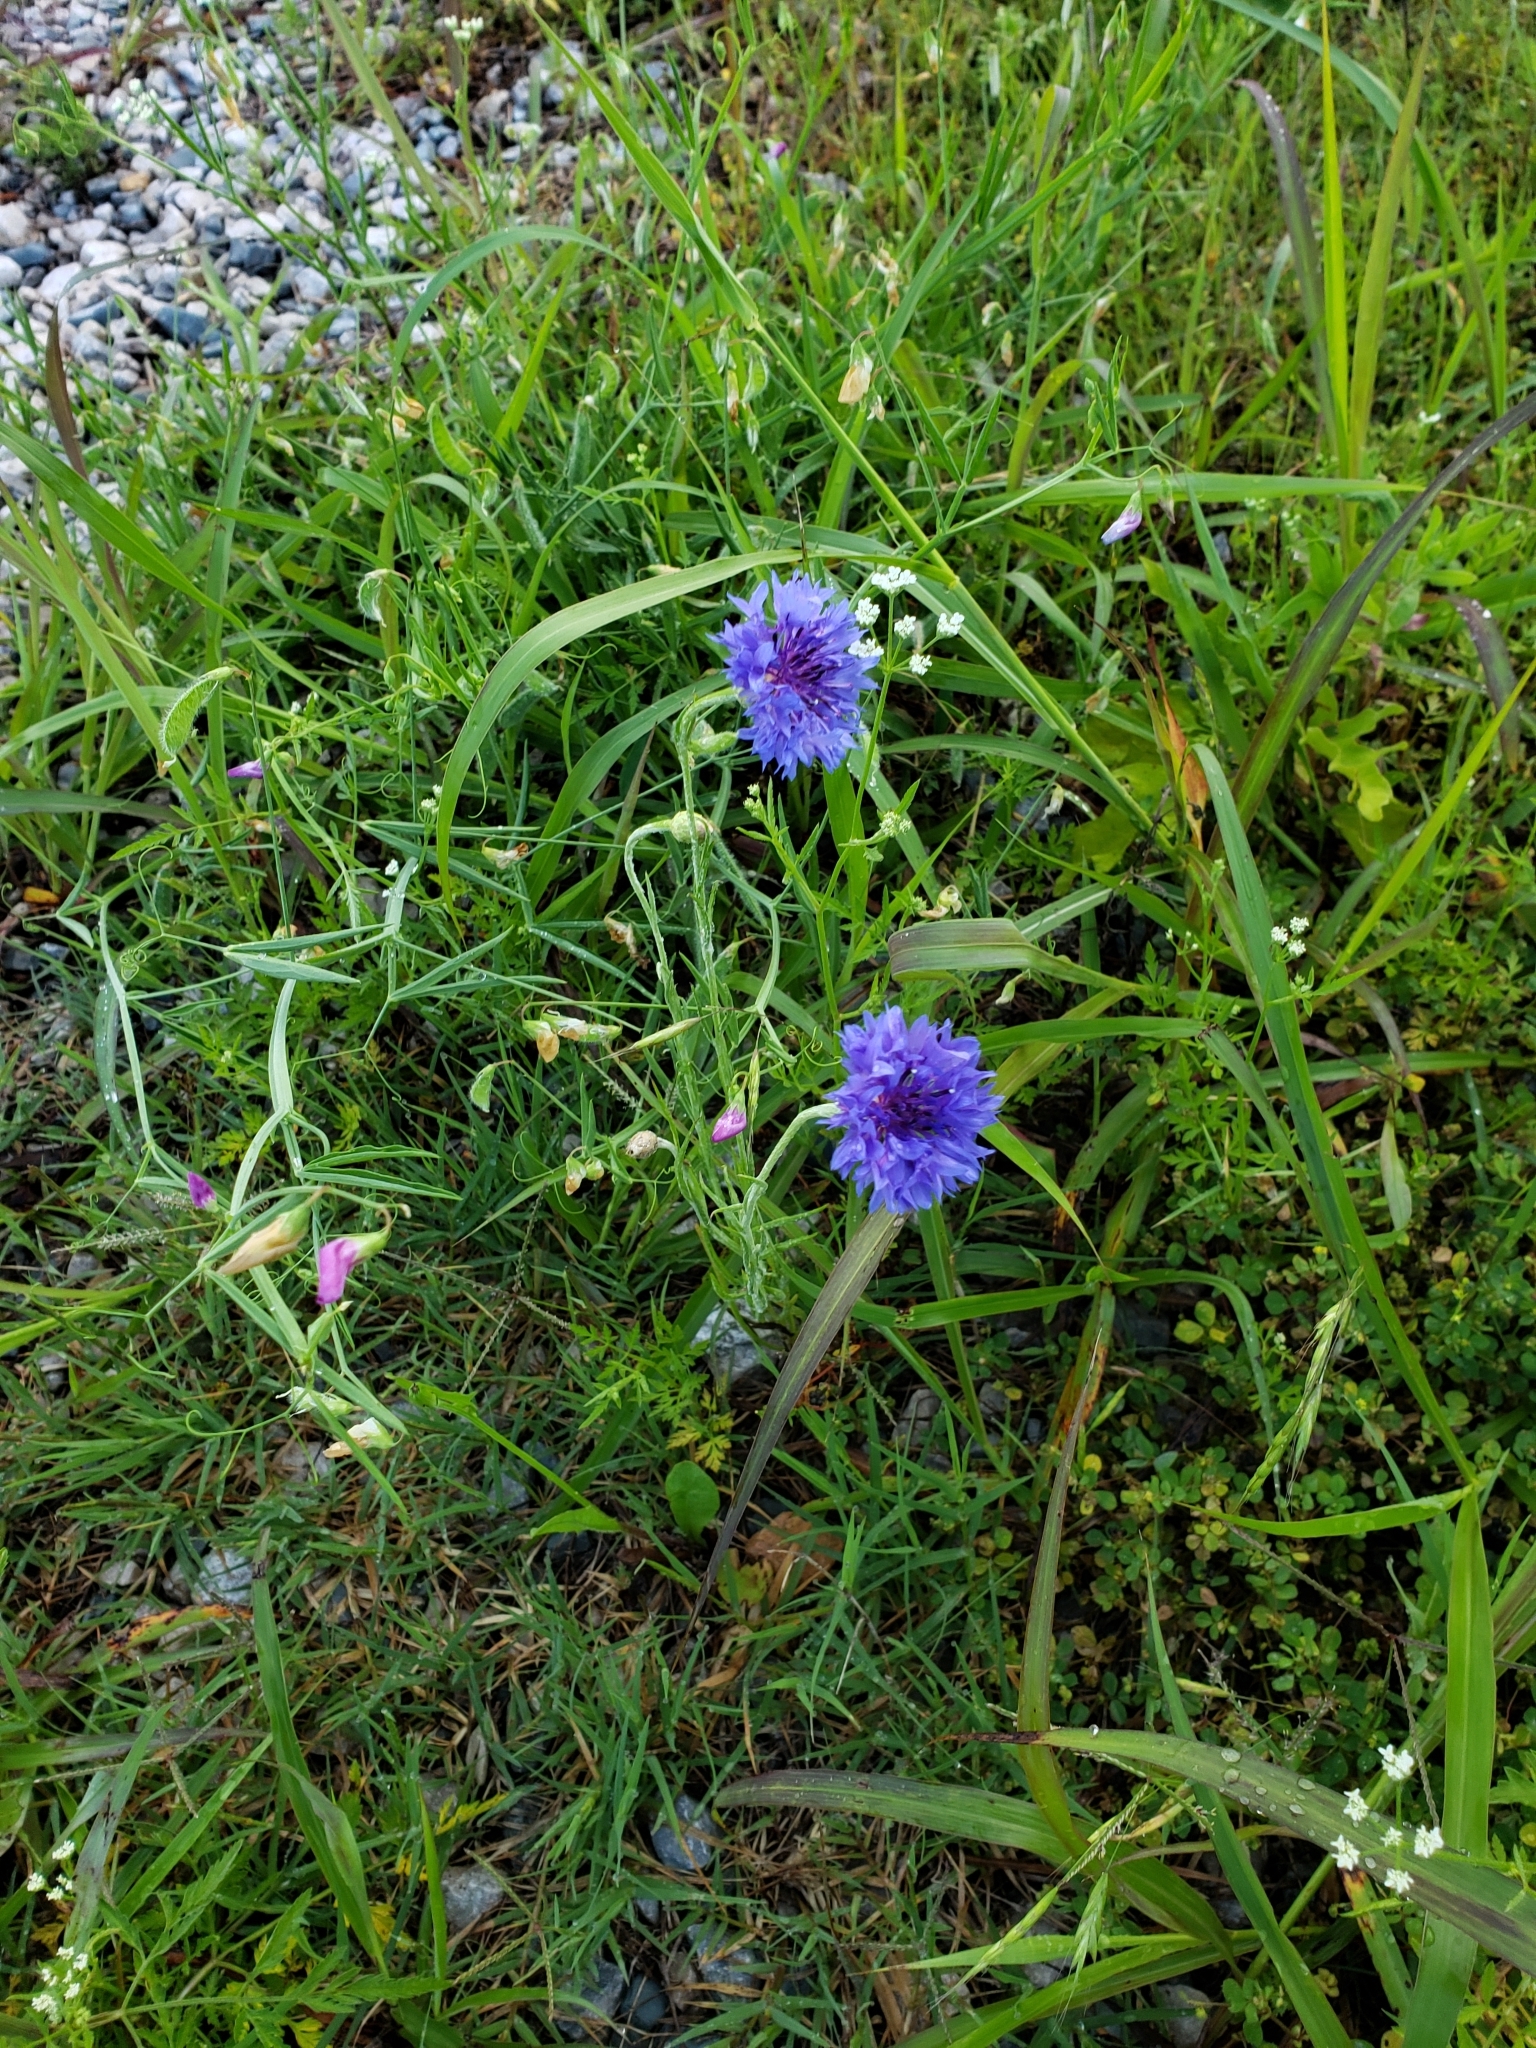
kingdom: Plantae
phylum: Tracheophyta
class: Magnoliopsida
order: Asterales
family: Asteraceae
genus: Centaurea
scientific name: Centaurea cyanus
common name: Cornflower
